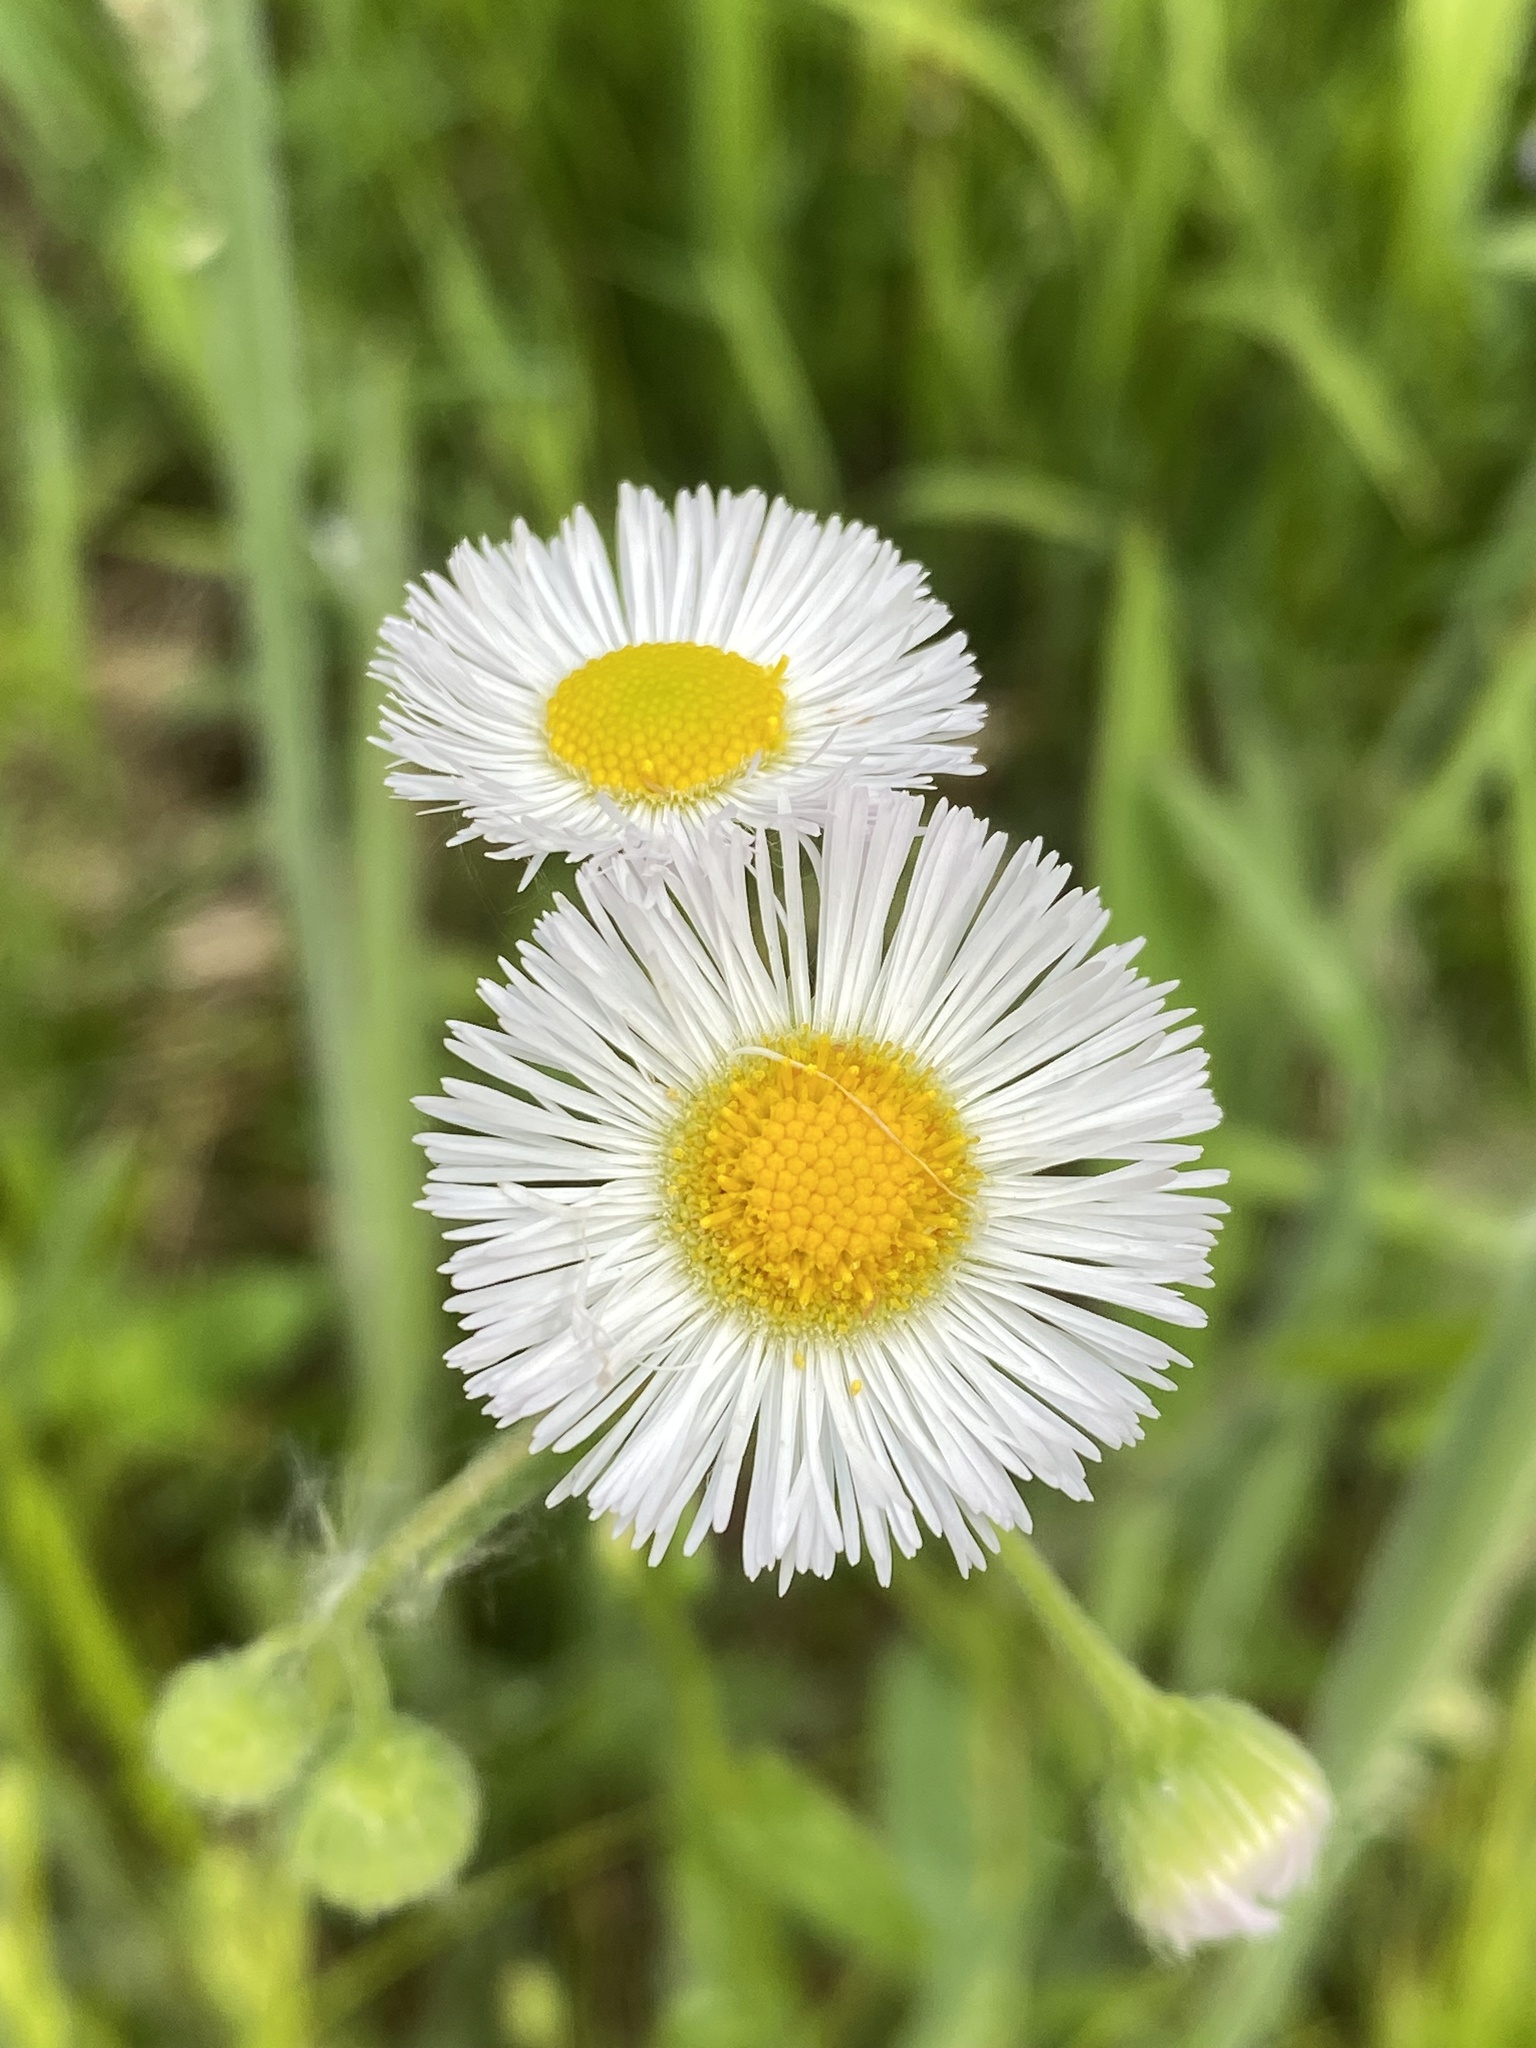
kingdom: Plantae
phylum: Tracheophyta
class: Magnoliopsida
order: Asterales
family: Asteraceae
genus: Erigeron
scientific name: Erigeron philadelphicus
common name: Robin's-plantain
